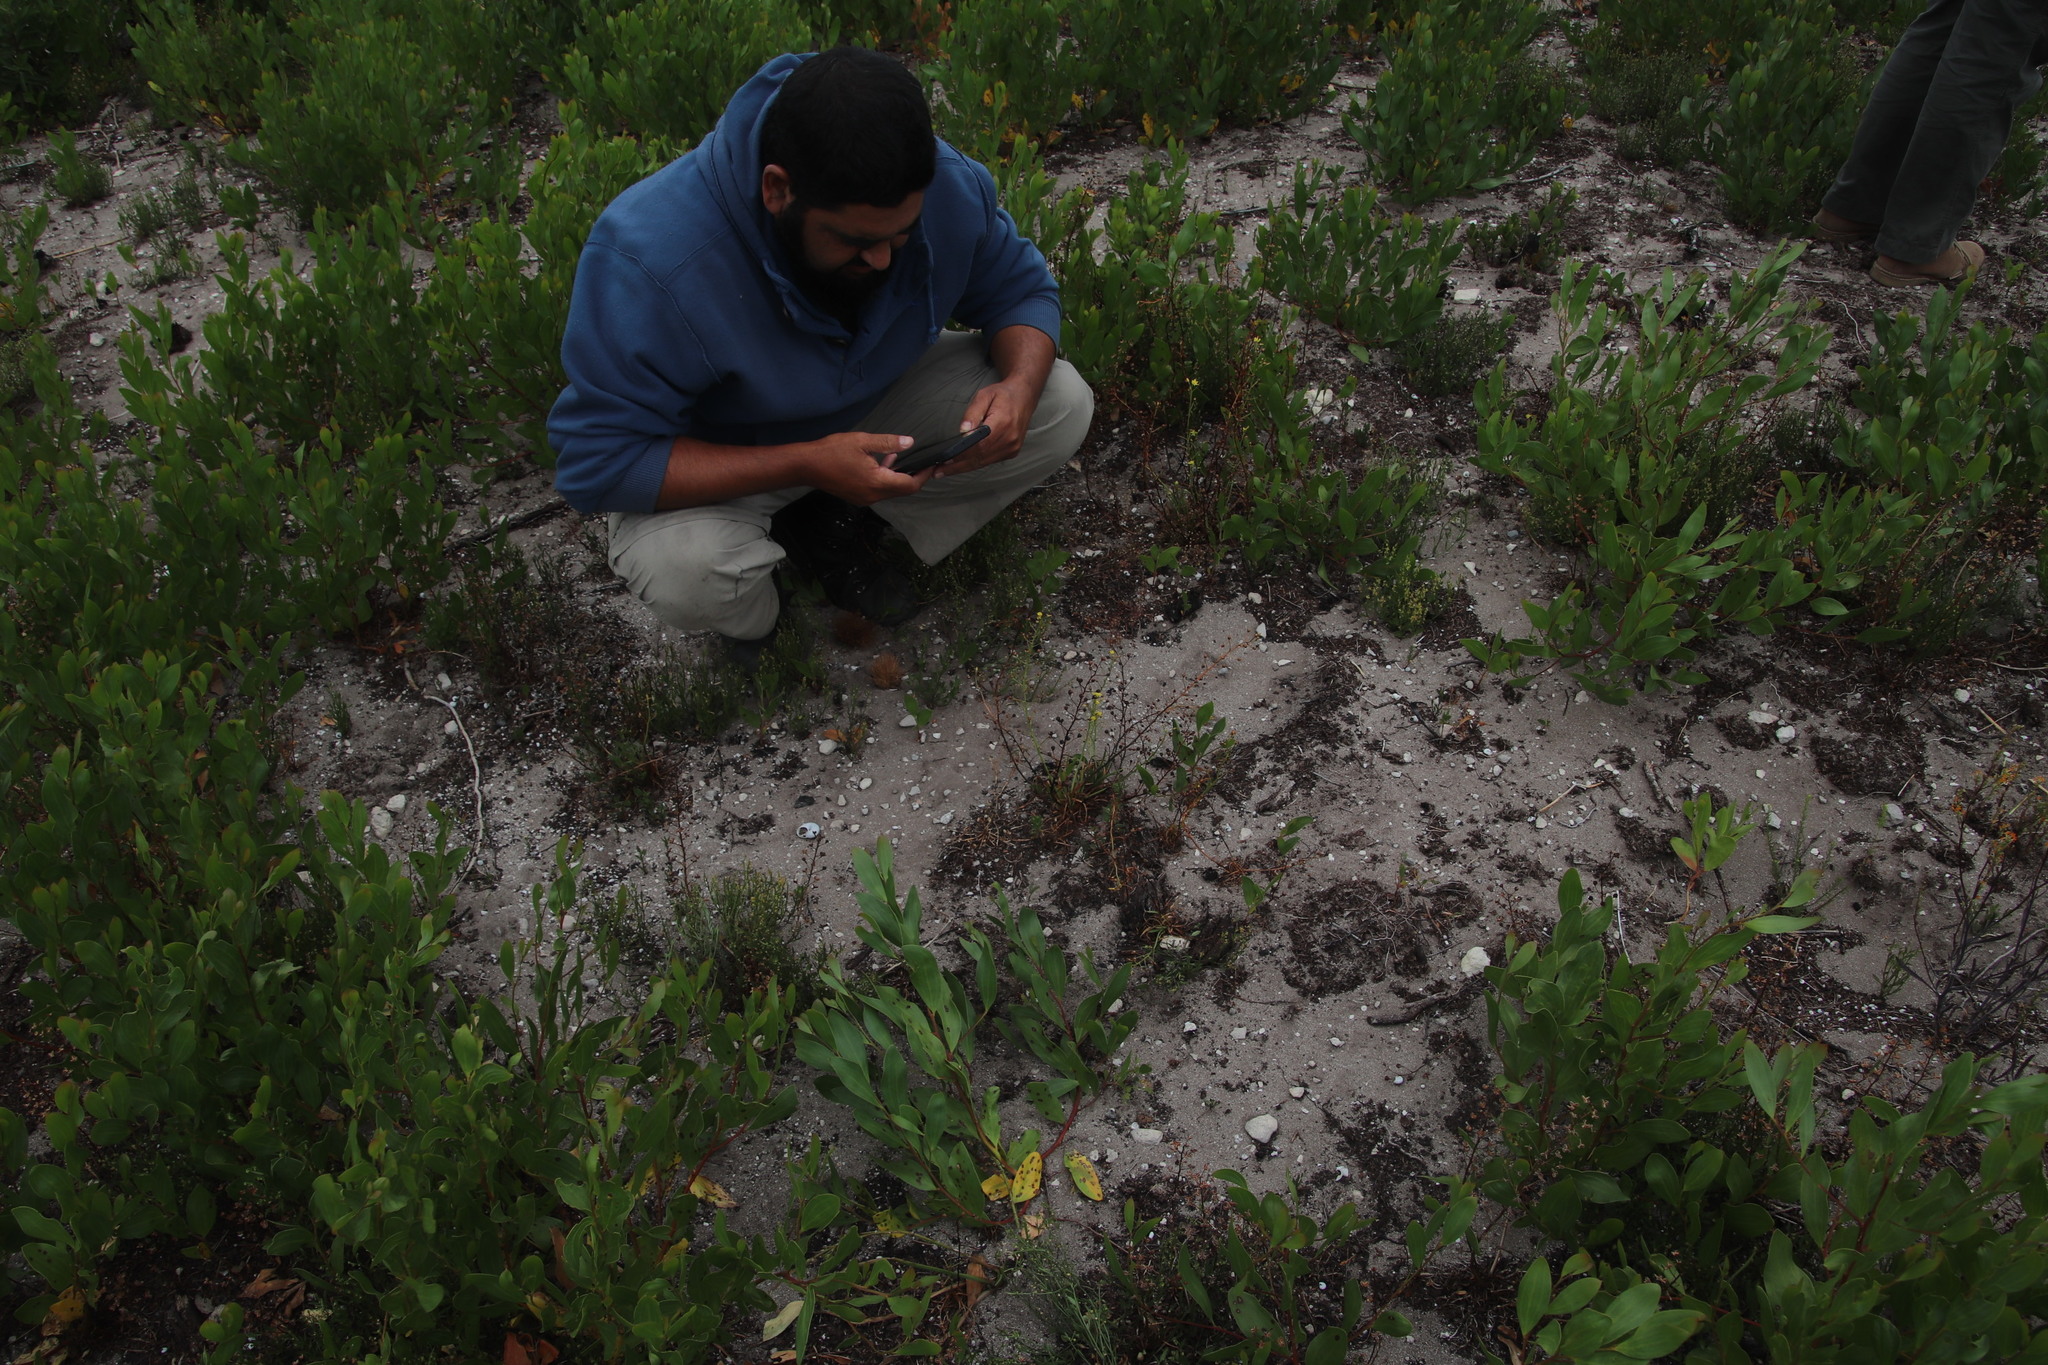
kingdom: Plantae
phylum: Tracheophyta
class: Liliopsida
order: Asparagales
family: Asphodelaceae
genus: Bulbine
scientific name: Bulbine annua
